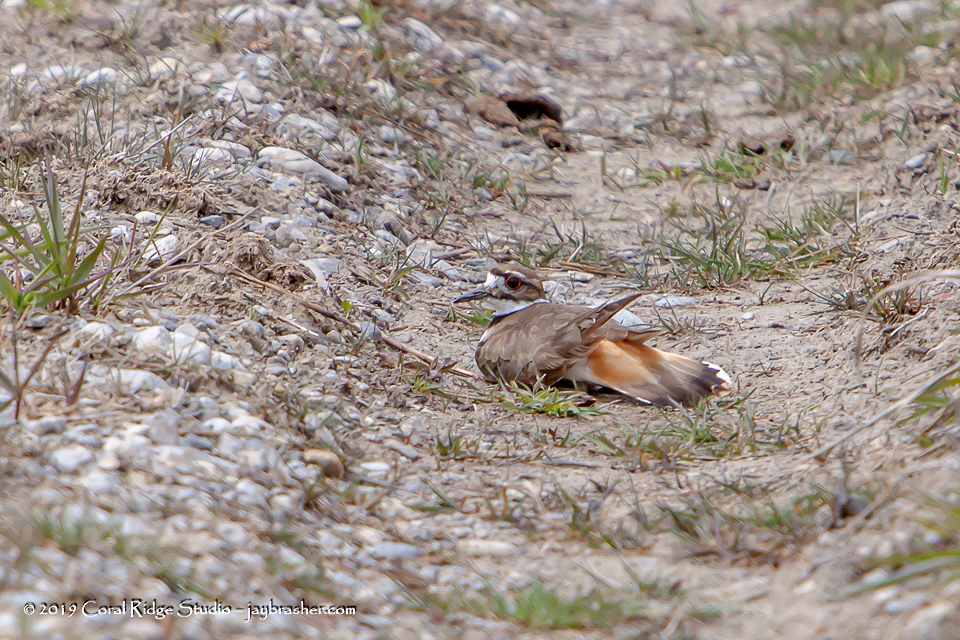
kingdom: Animalia
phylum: Chordata
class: Aves
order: Charadriiformes
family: Charadriidae
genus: Charadrius
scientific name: Charadrius vociferus
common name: Killdeer
